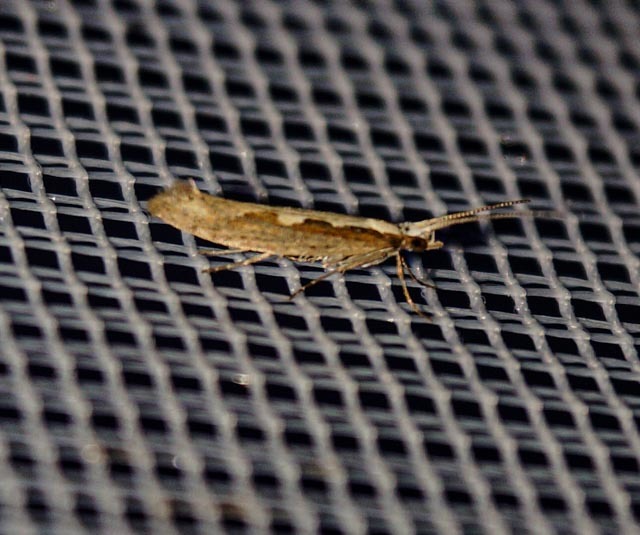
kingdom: Animalia
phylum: Arthropoda
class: Insecta
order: Lepidoptera
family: Plutellidae
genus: Plutella
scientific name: Plutella xylostella
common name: Diamond-back moth
